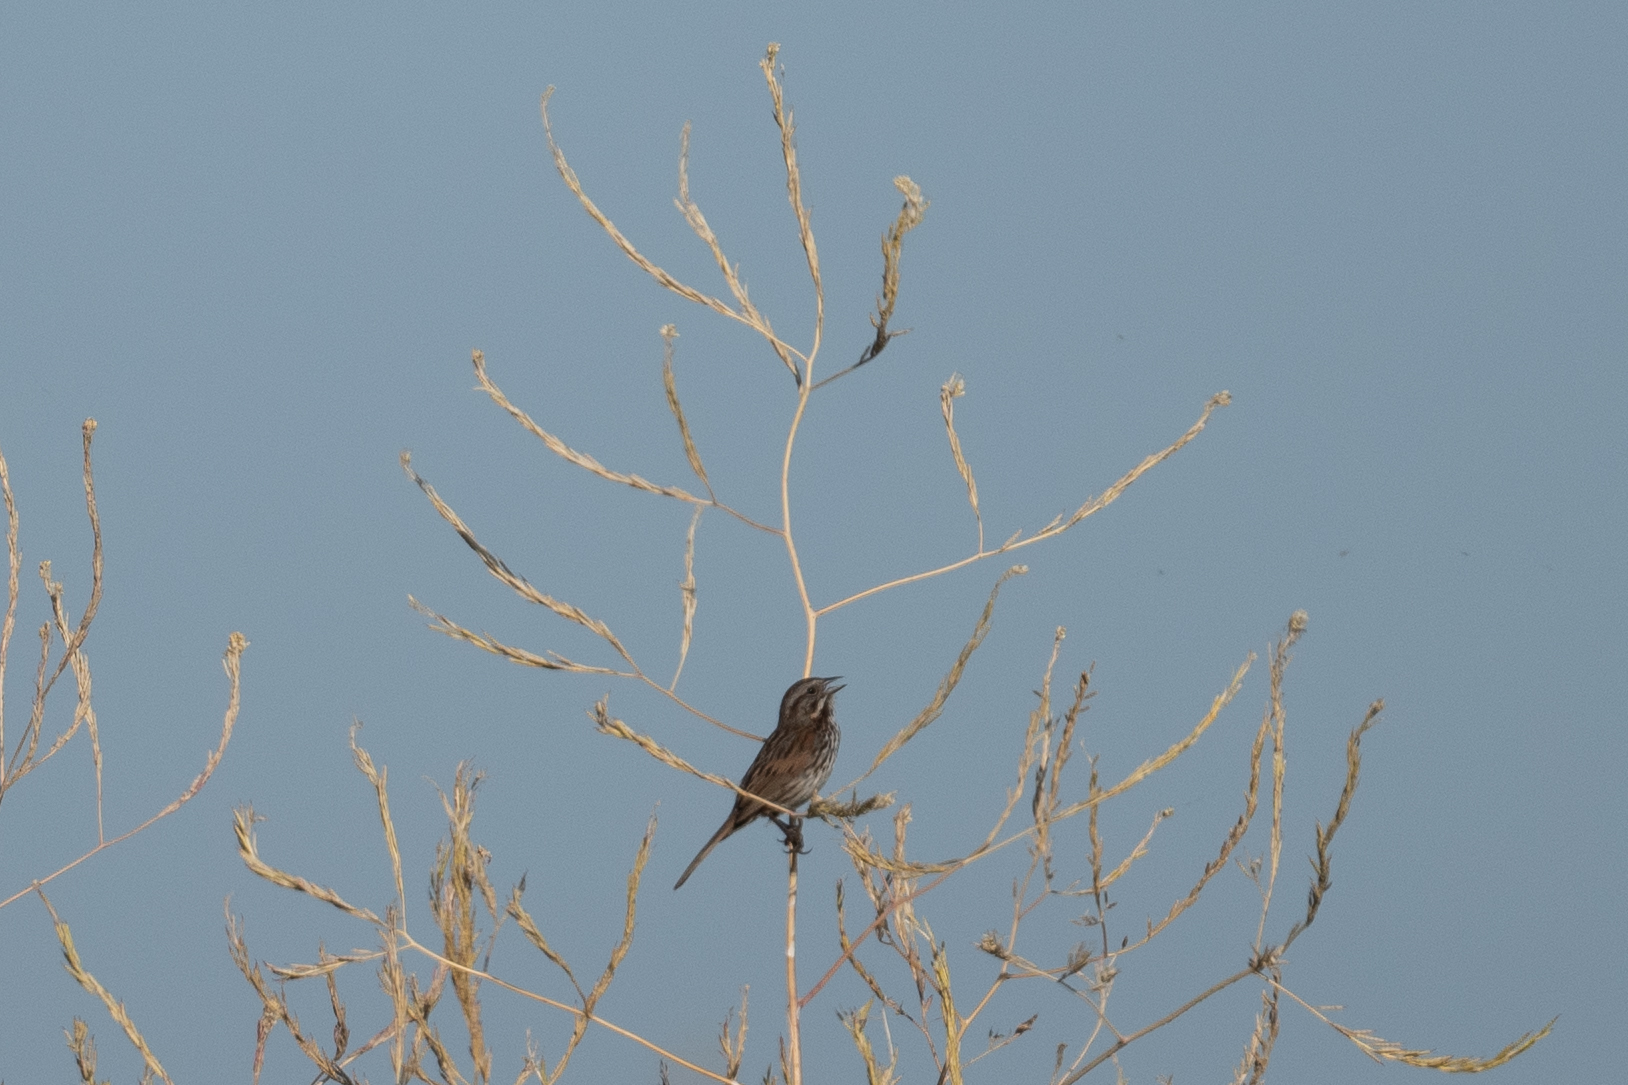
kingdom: Animalia
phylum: Chordata
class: Aves
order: Passeriformes
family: Passerellidae
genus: Melospiza
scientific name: Melospiza melodia
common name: Song sparrow
